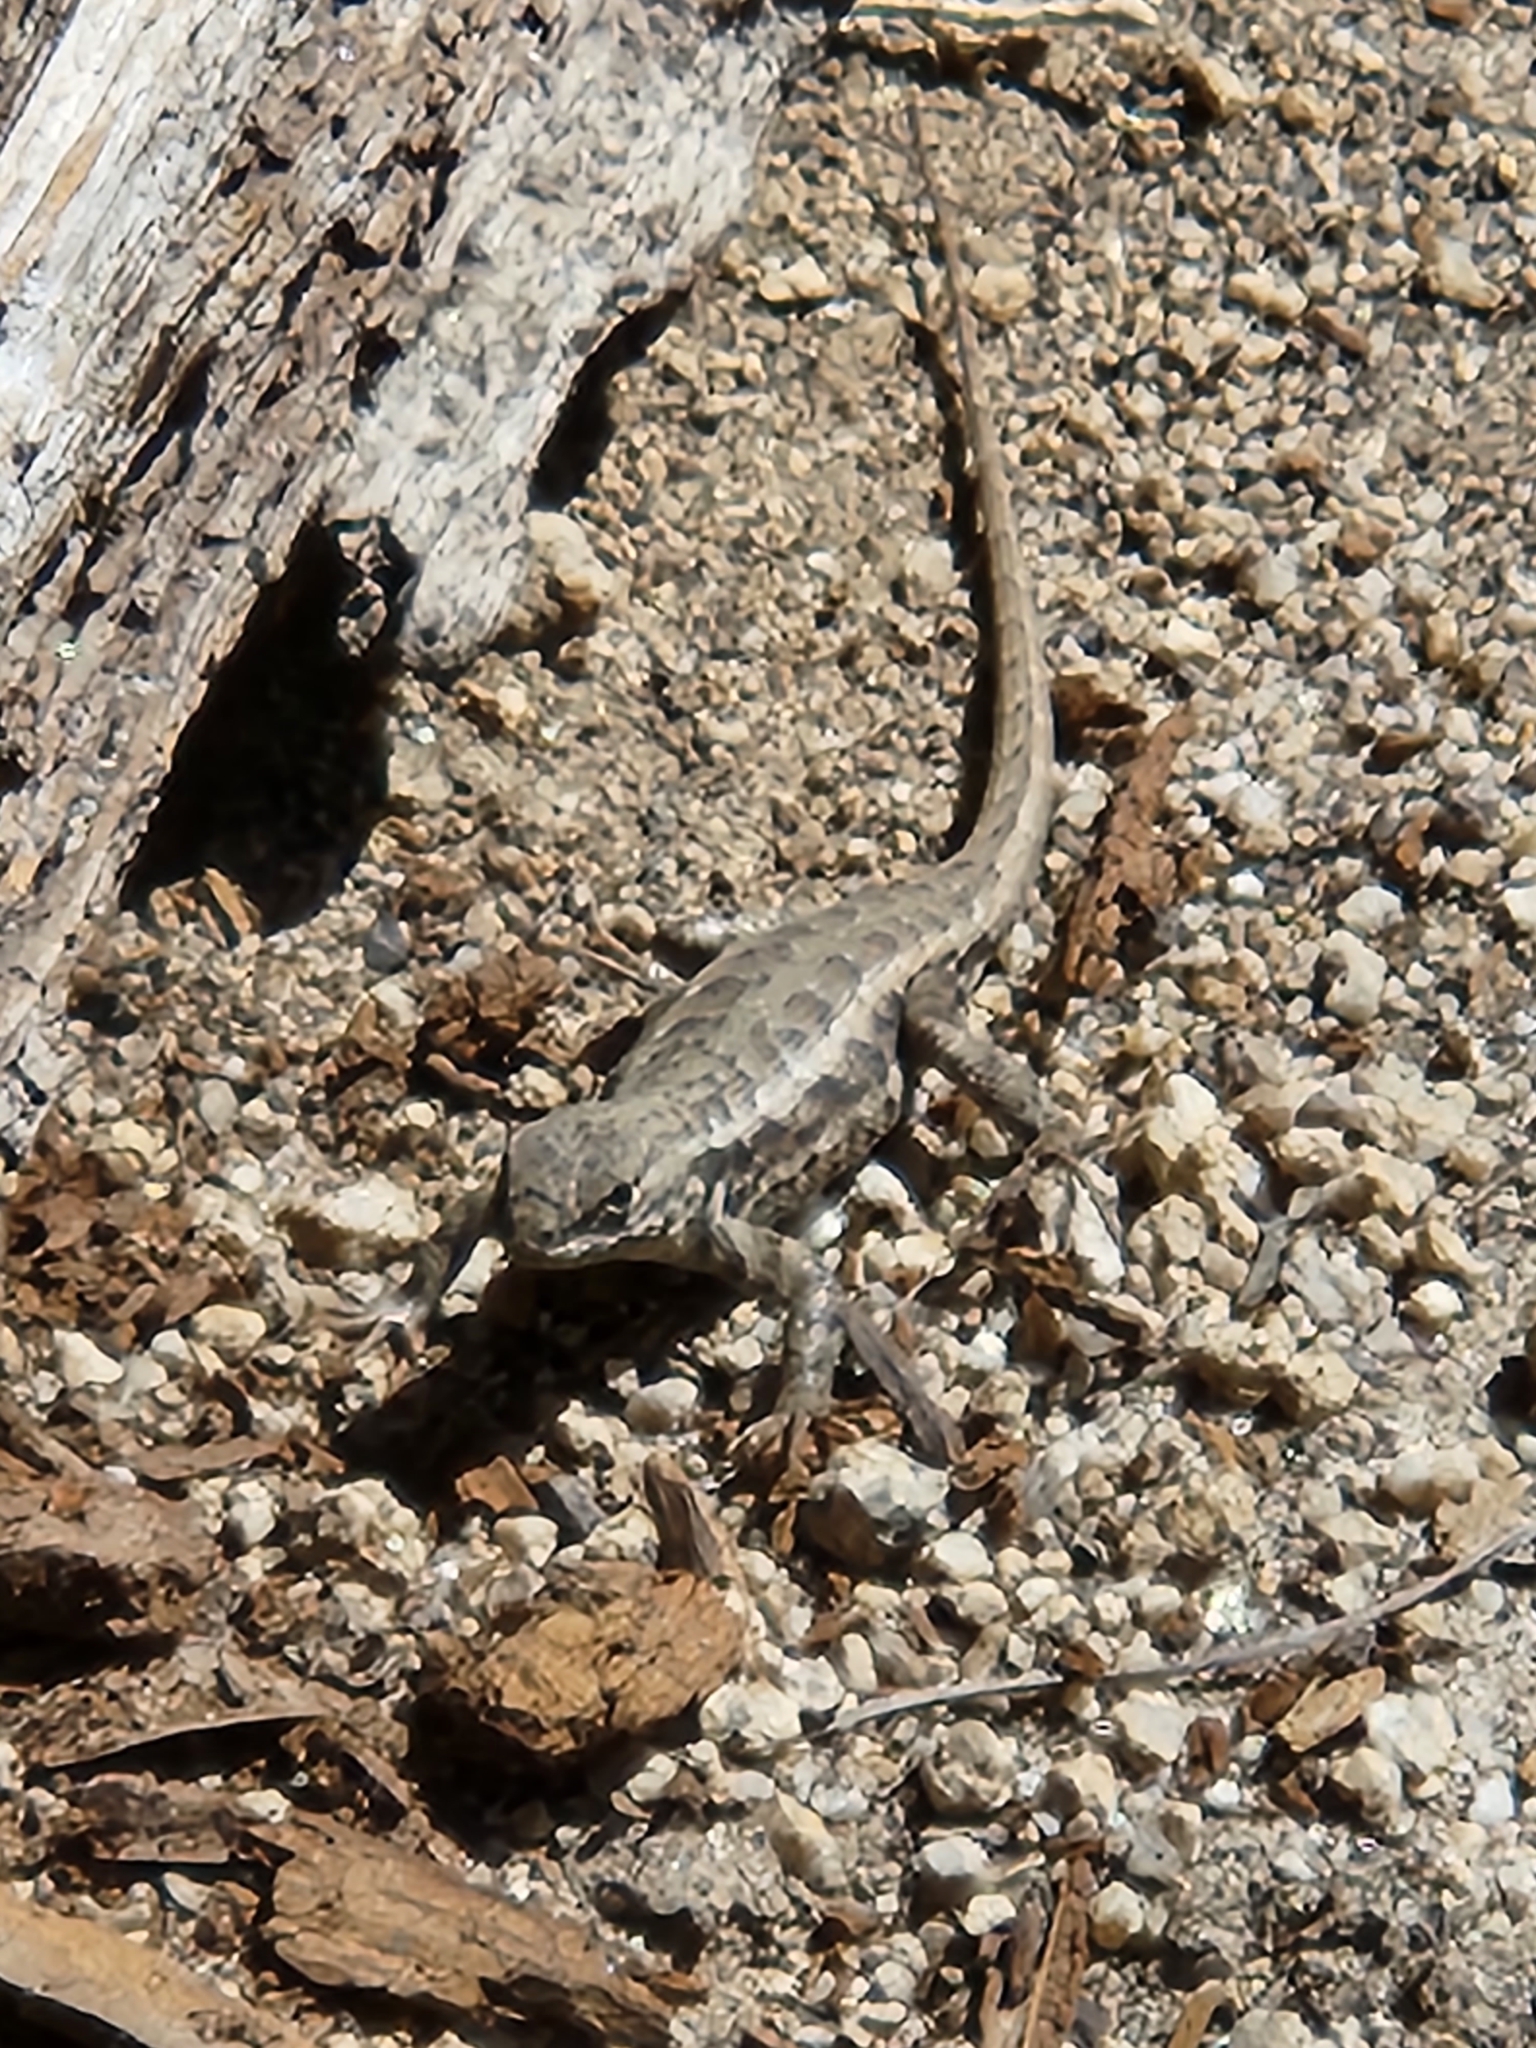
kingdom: Animalia
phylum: Chordata
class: Squamata
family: Phrynosomatidae
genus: Sceloporus
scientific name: Sceloporus graciosus
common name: Sagebrush lizard
